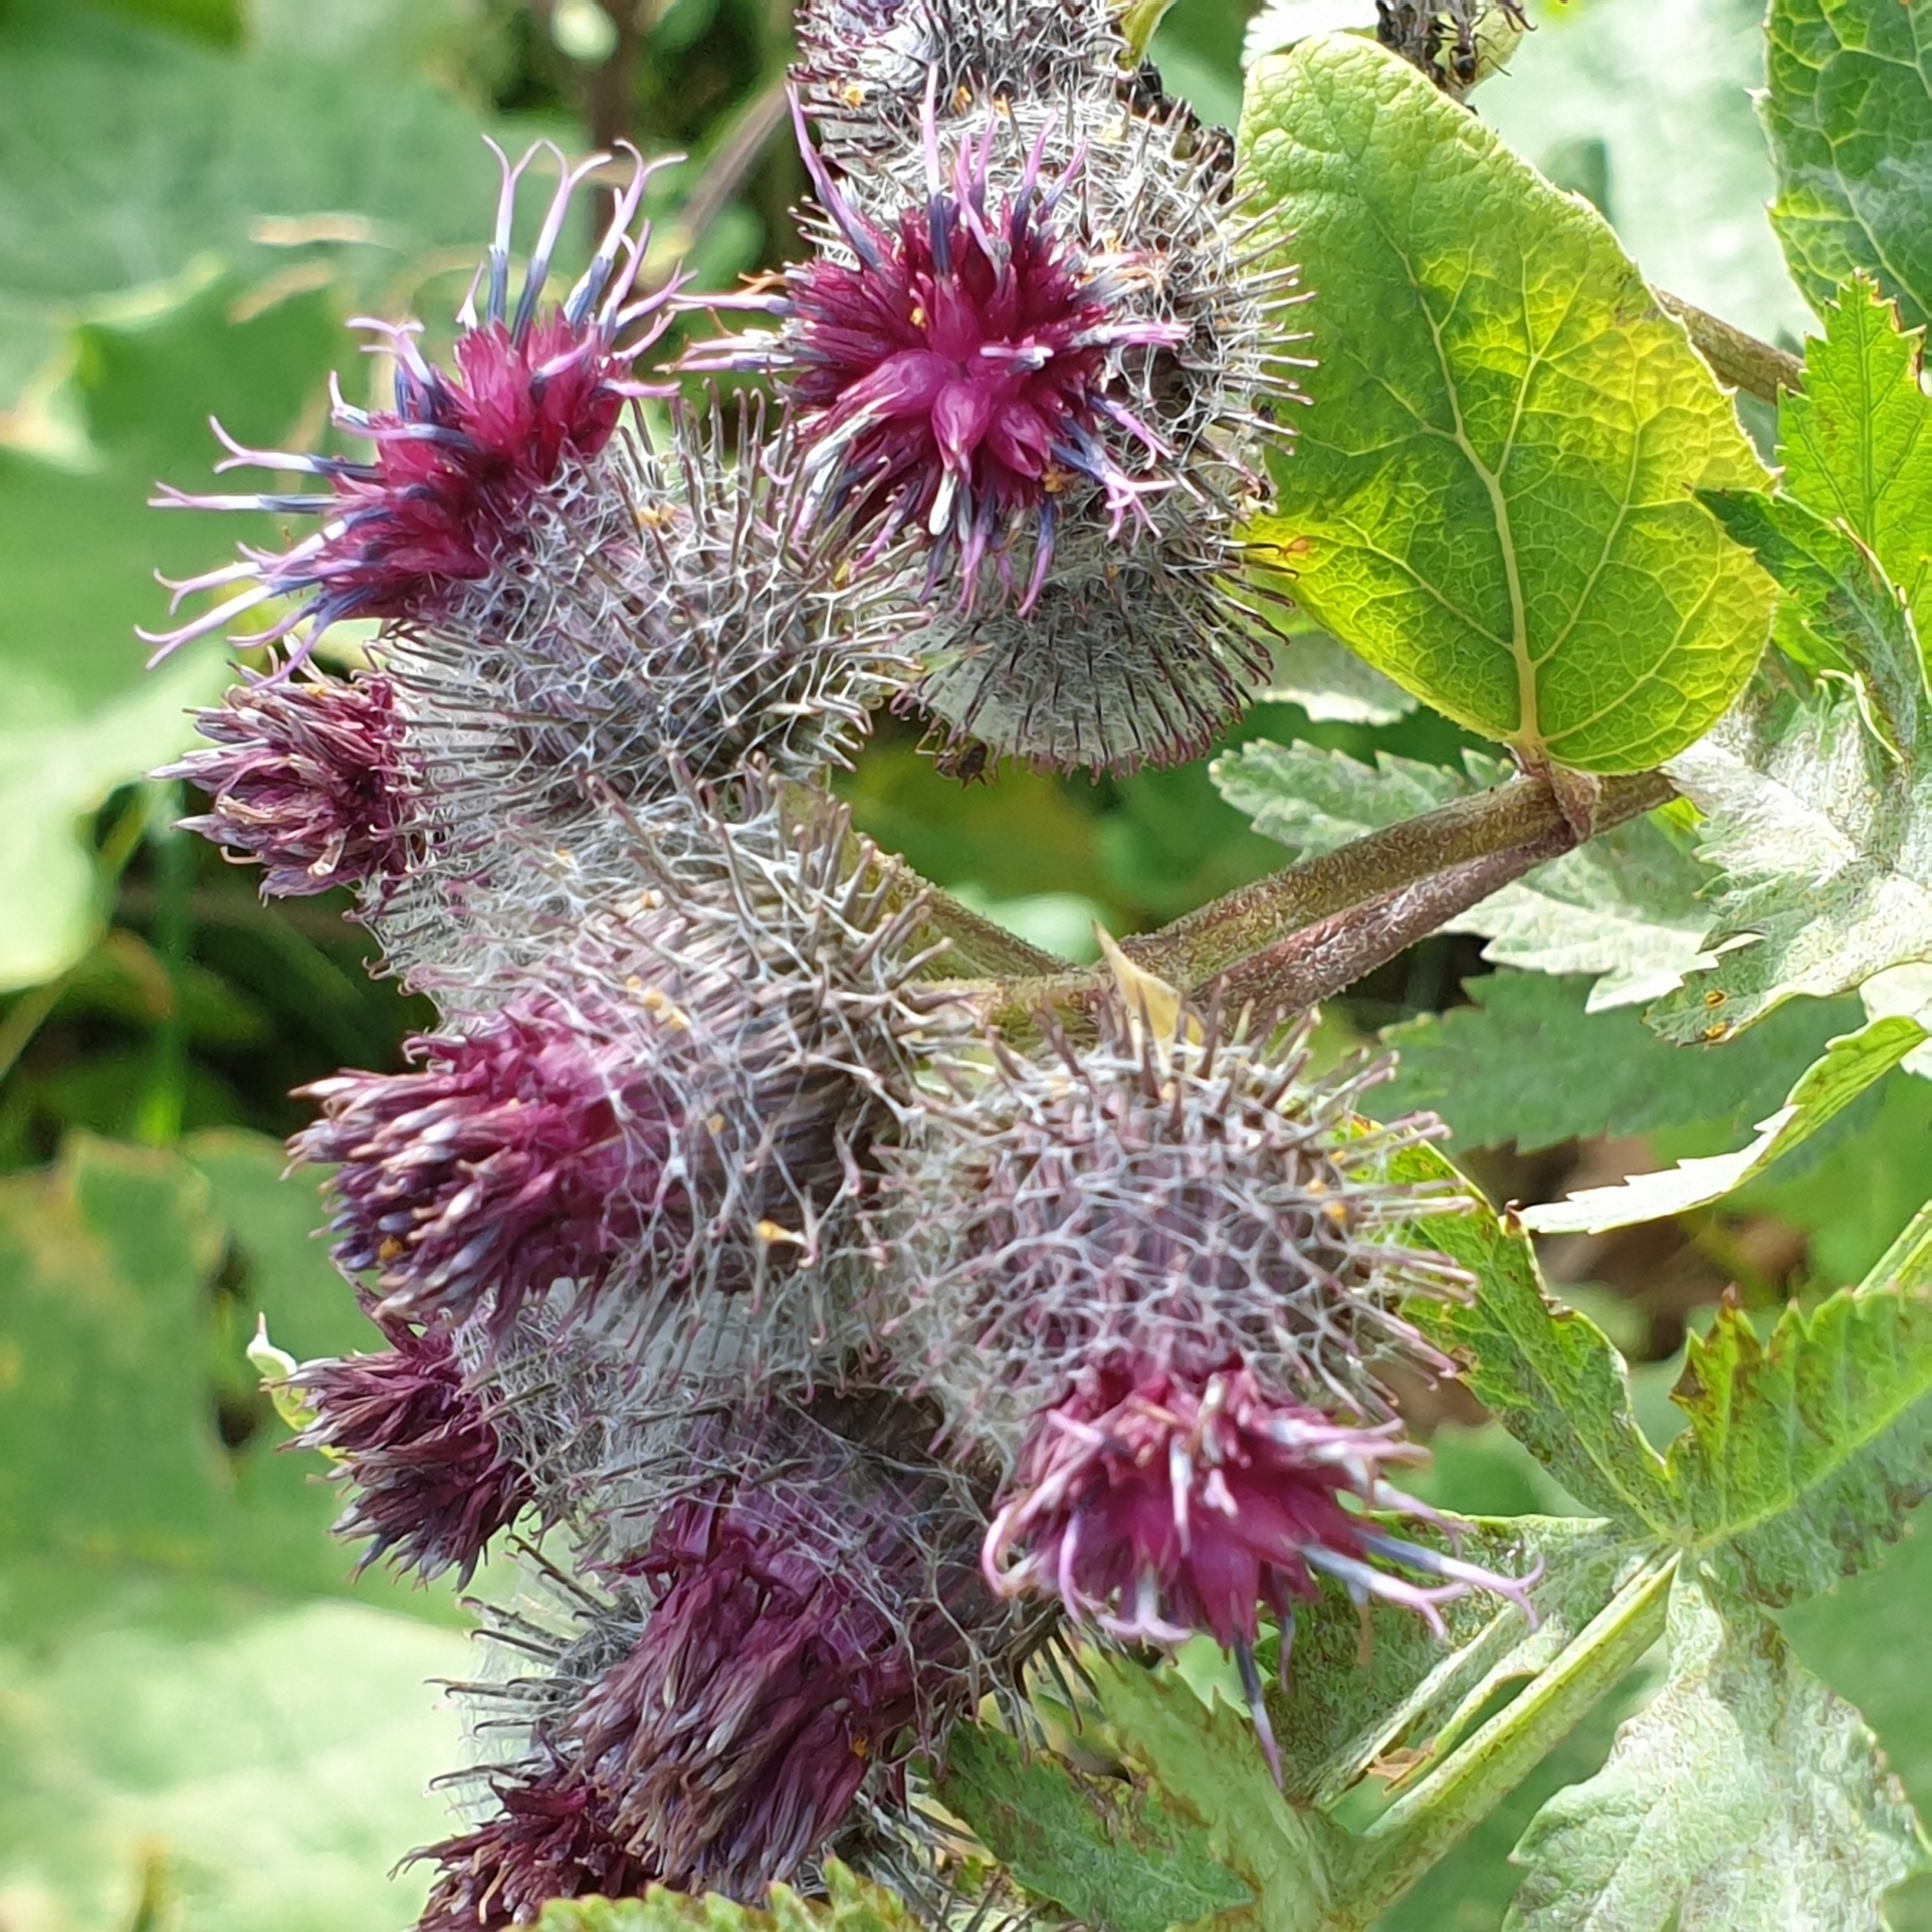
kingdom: Plantae
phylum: Tracheophyta
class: Magnoliopsida
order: Asterales
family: Asteraceae
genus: Arctium
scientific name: Arctium tomentosum
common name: Woolly burdock
